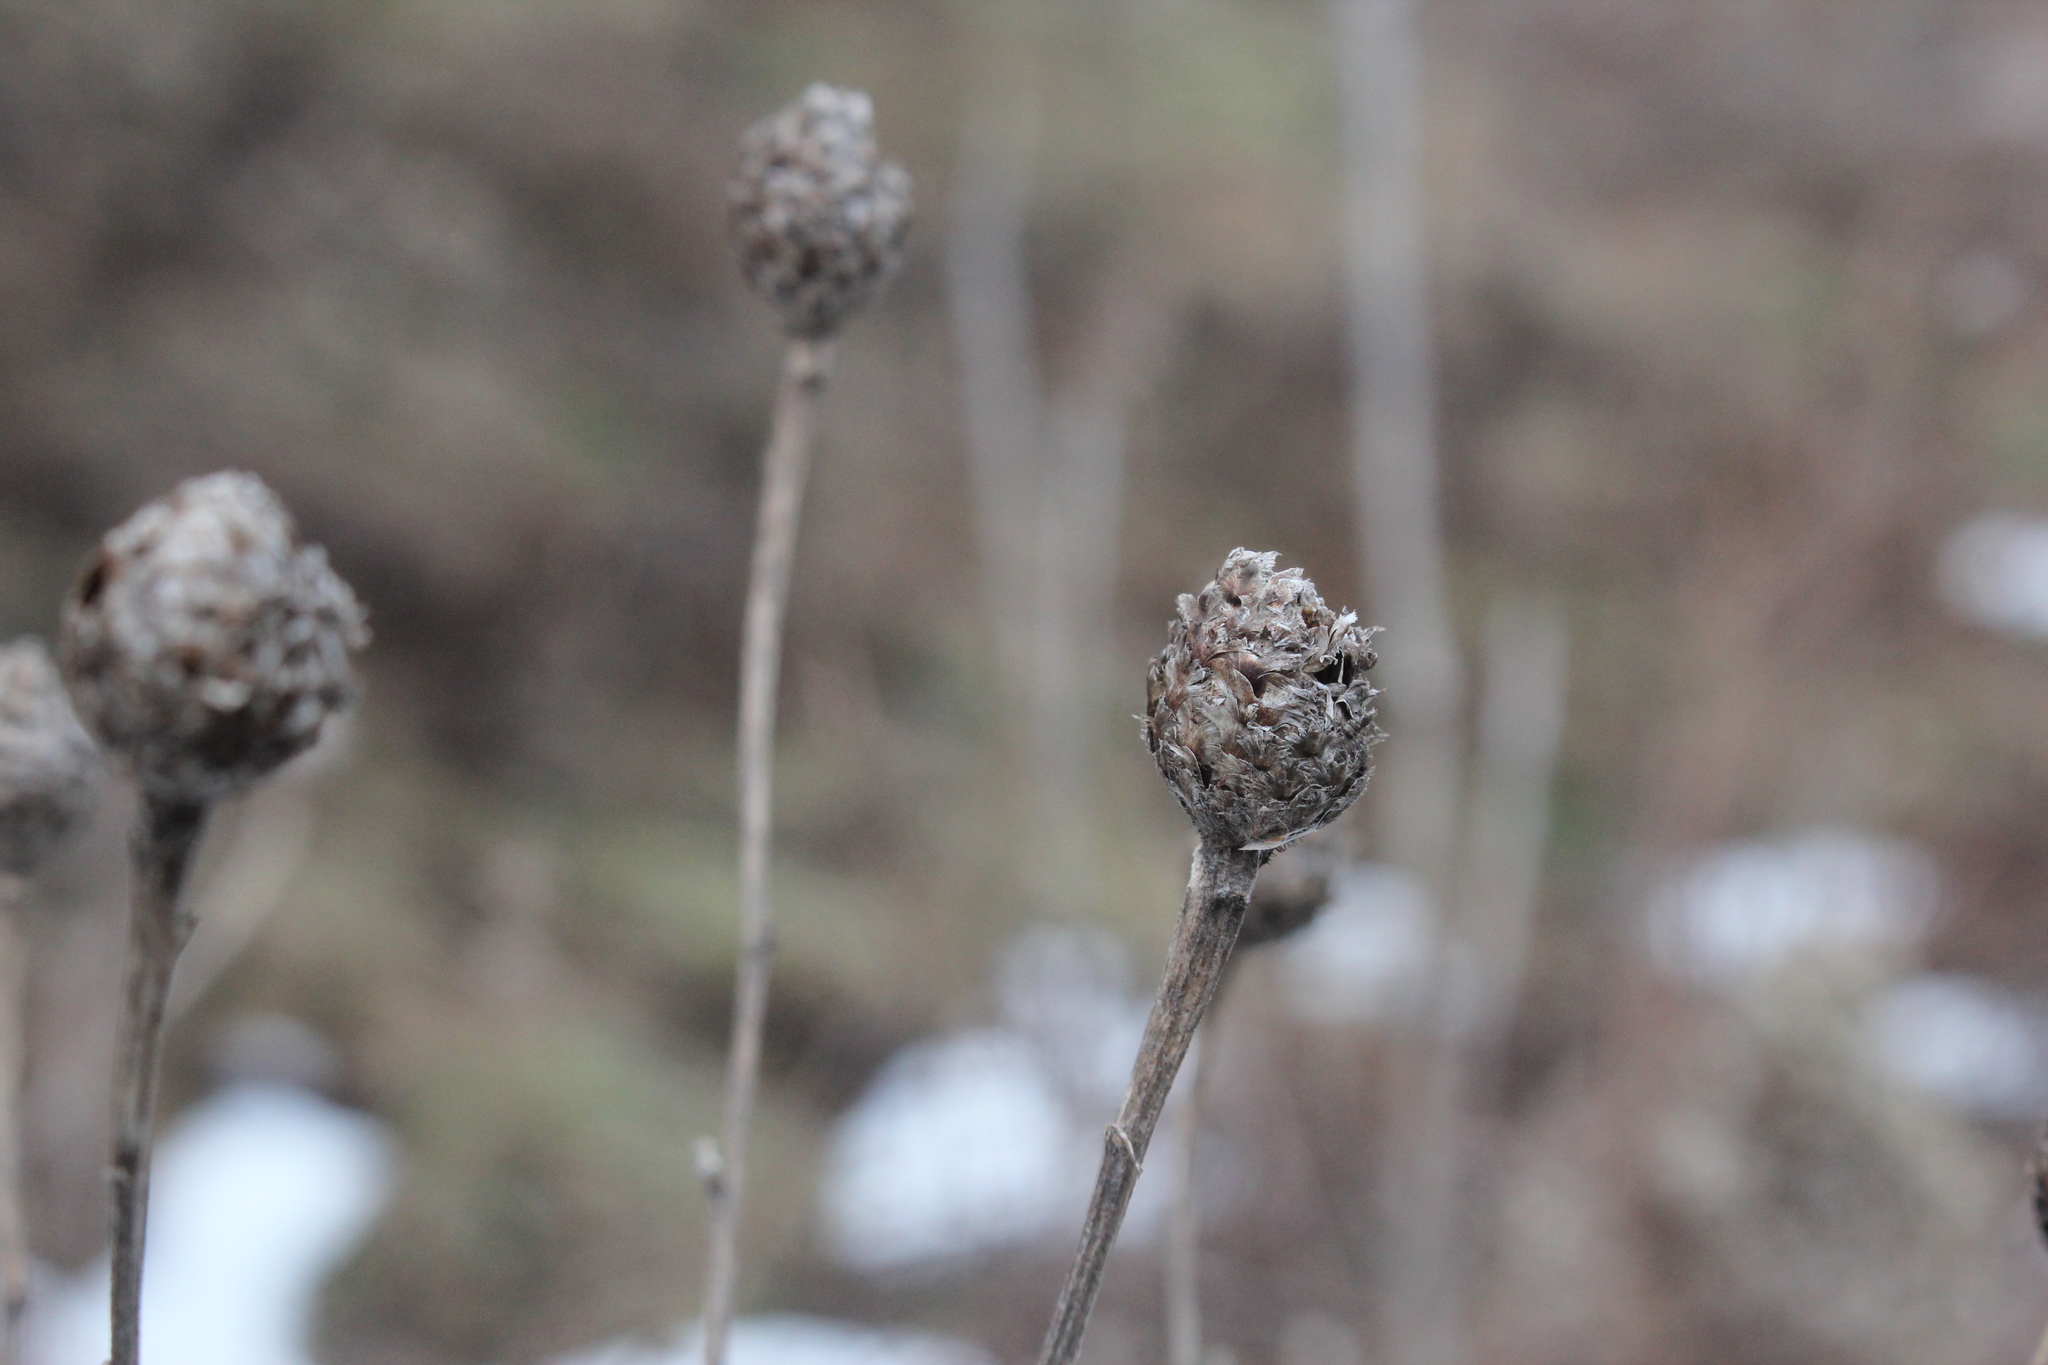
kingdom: Plantae
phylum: Tracheophyta
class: Magnoliopsida
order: Asterales
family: Asteraceae
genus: Centaurea
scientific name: Centaurea moncktonii
